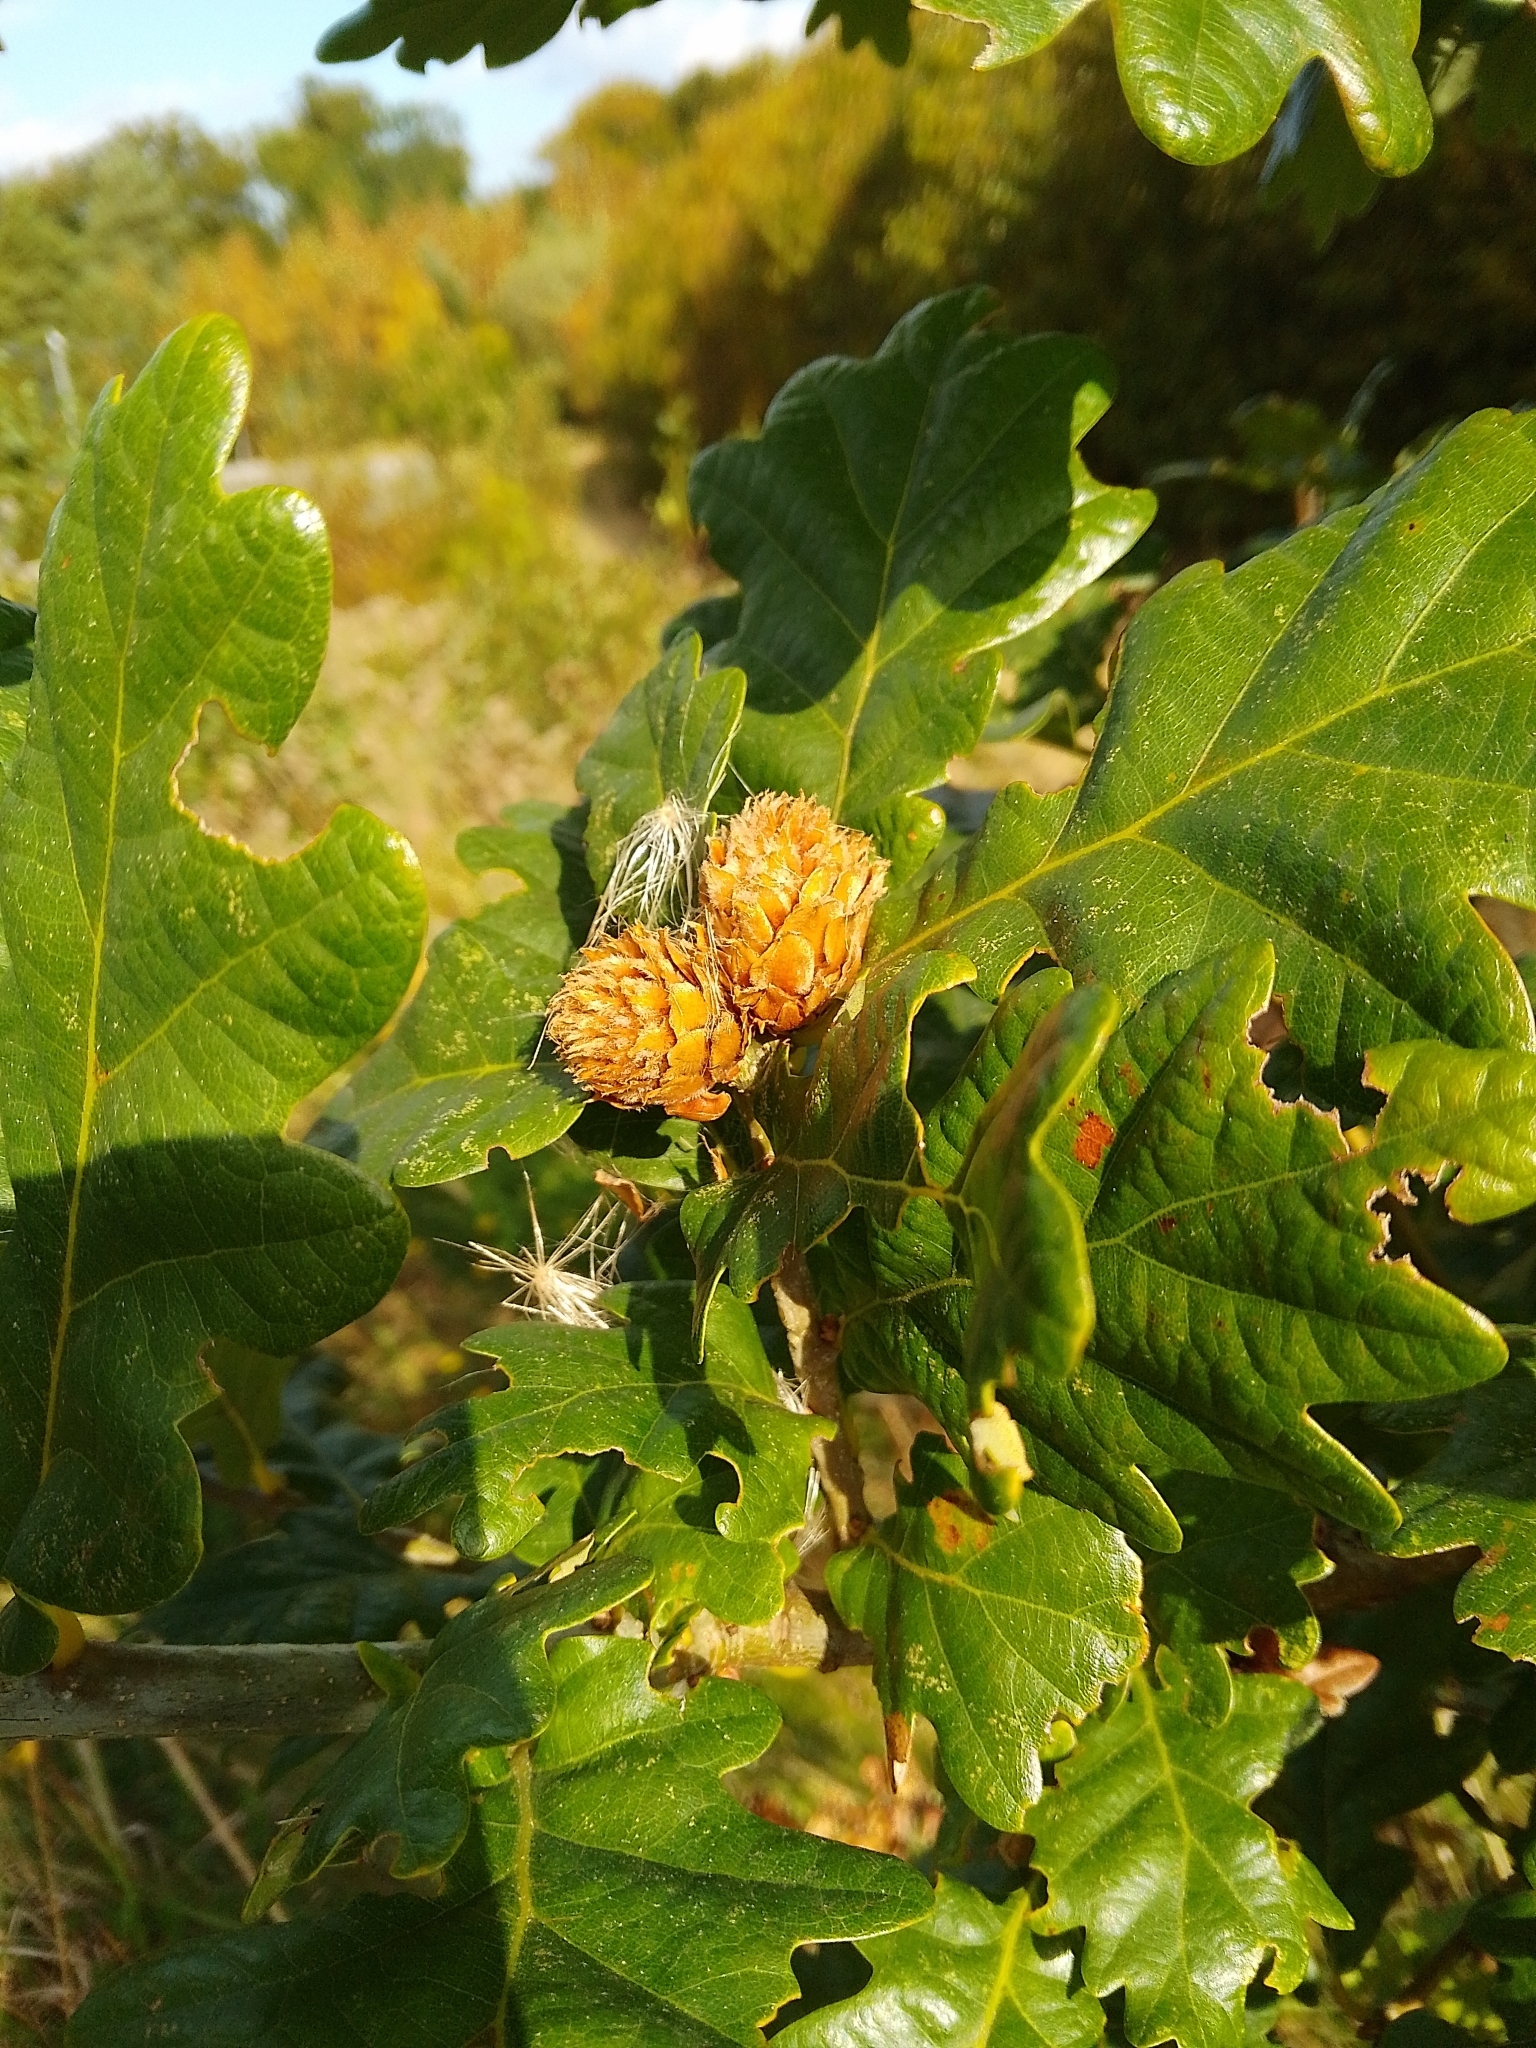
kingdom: Animalia
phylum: Arthropoda
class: Insecta
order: Hymenoptera
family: Cynipidae
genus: Andricus
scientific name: Andricus foecundatrix
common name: Artichoke gall
